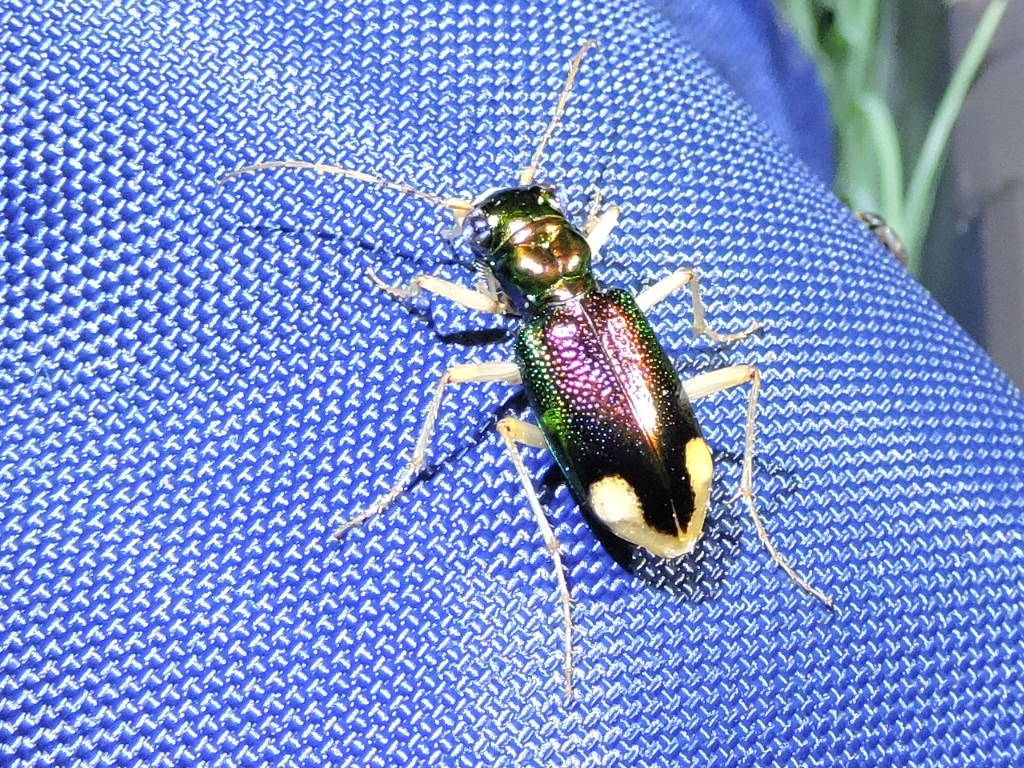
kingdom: Animalia
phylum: Arthropoda
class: Insecta
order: Coleoptera
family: Carabidae
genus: Tetracha
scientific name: Tetracha carolina
